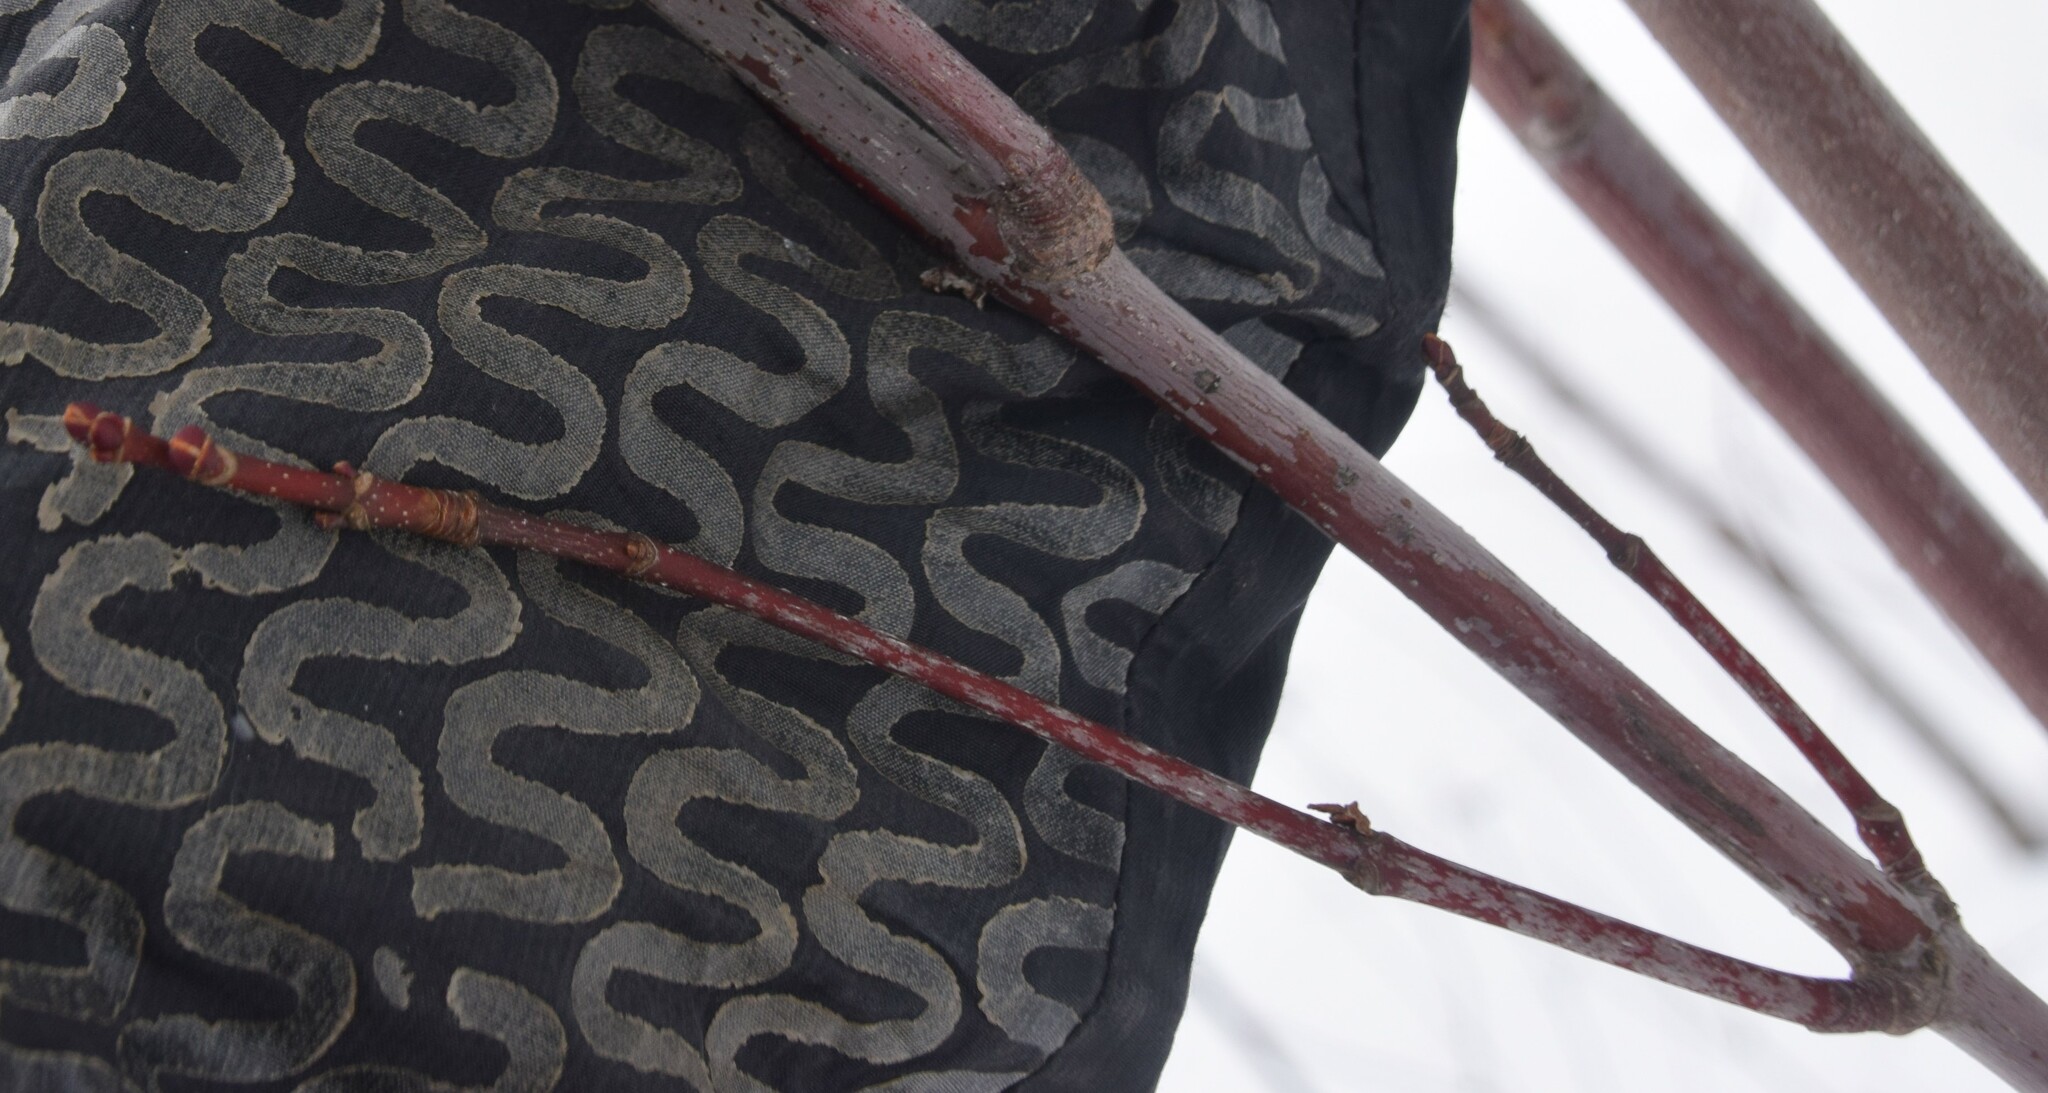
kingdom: Plantae
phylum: Tracheophyta
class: Magnoliopsida
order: Sapindales
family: Sapindaceae
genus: Acer
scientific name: Acer rubrum
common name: Red maple
